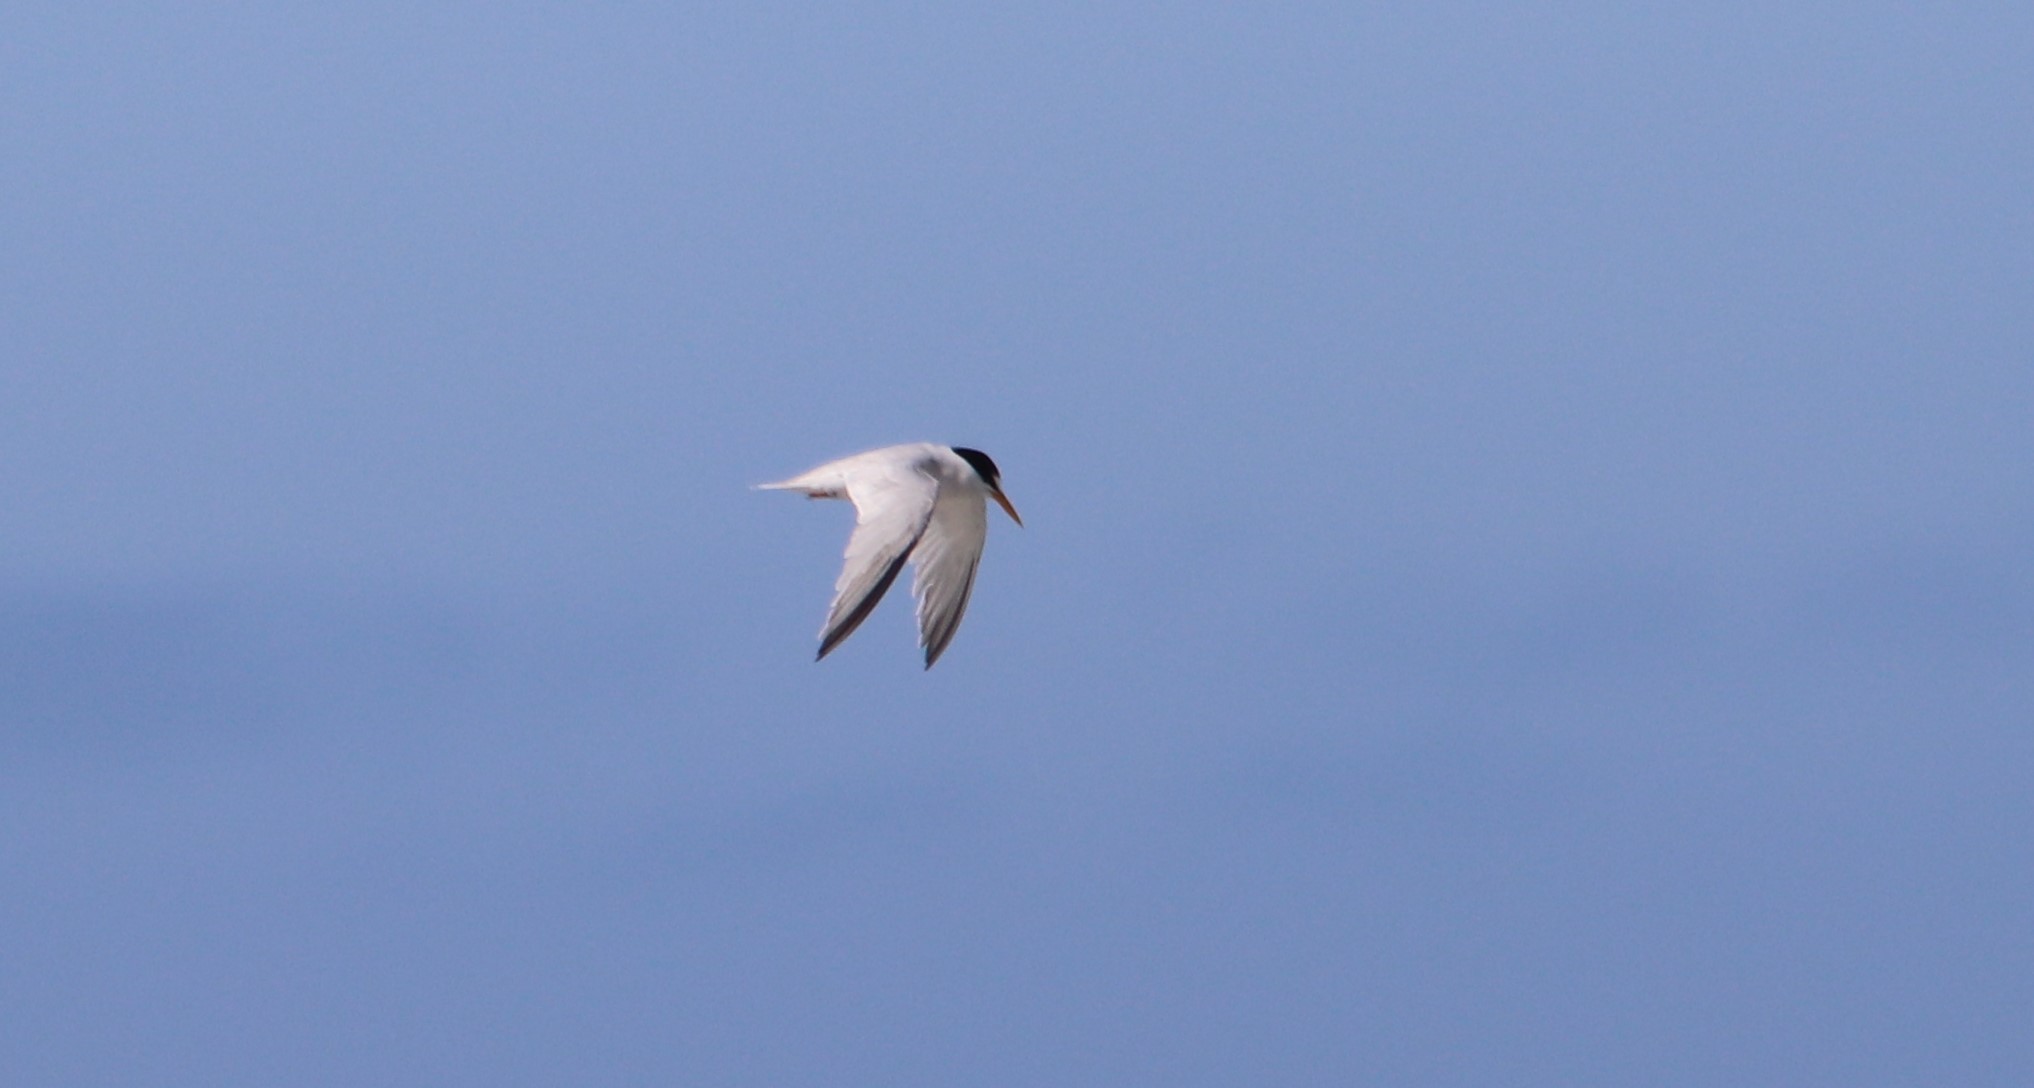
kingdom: Animalia
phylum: Chordata
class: Aves
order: Charadriiformes
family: Laridae
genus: Sternula
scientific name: Sternula antillarum
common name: Least tern
